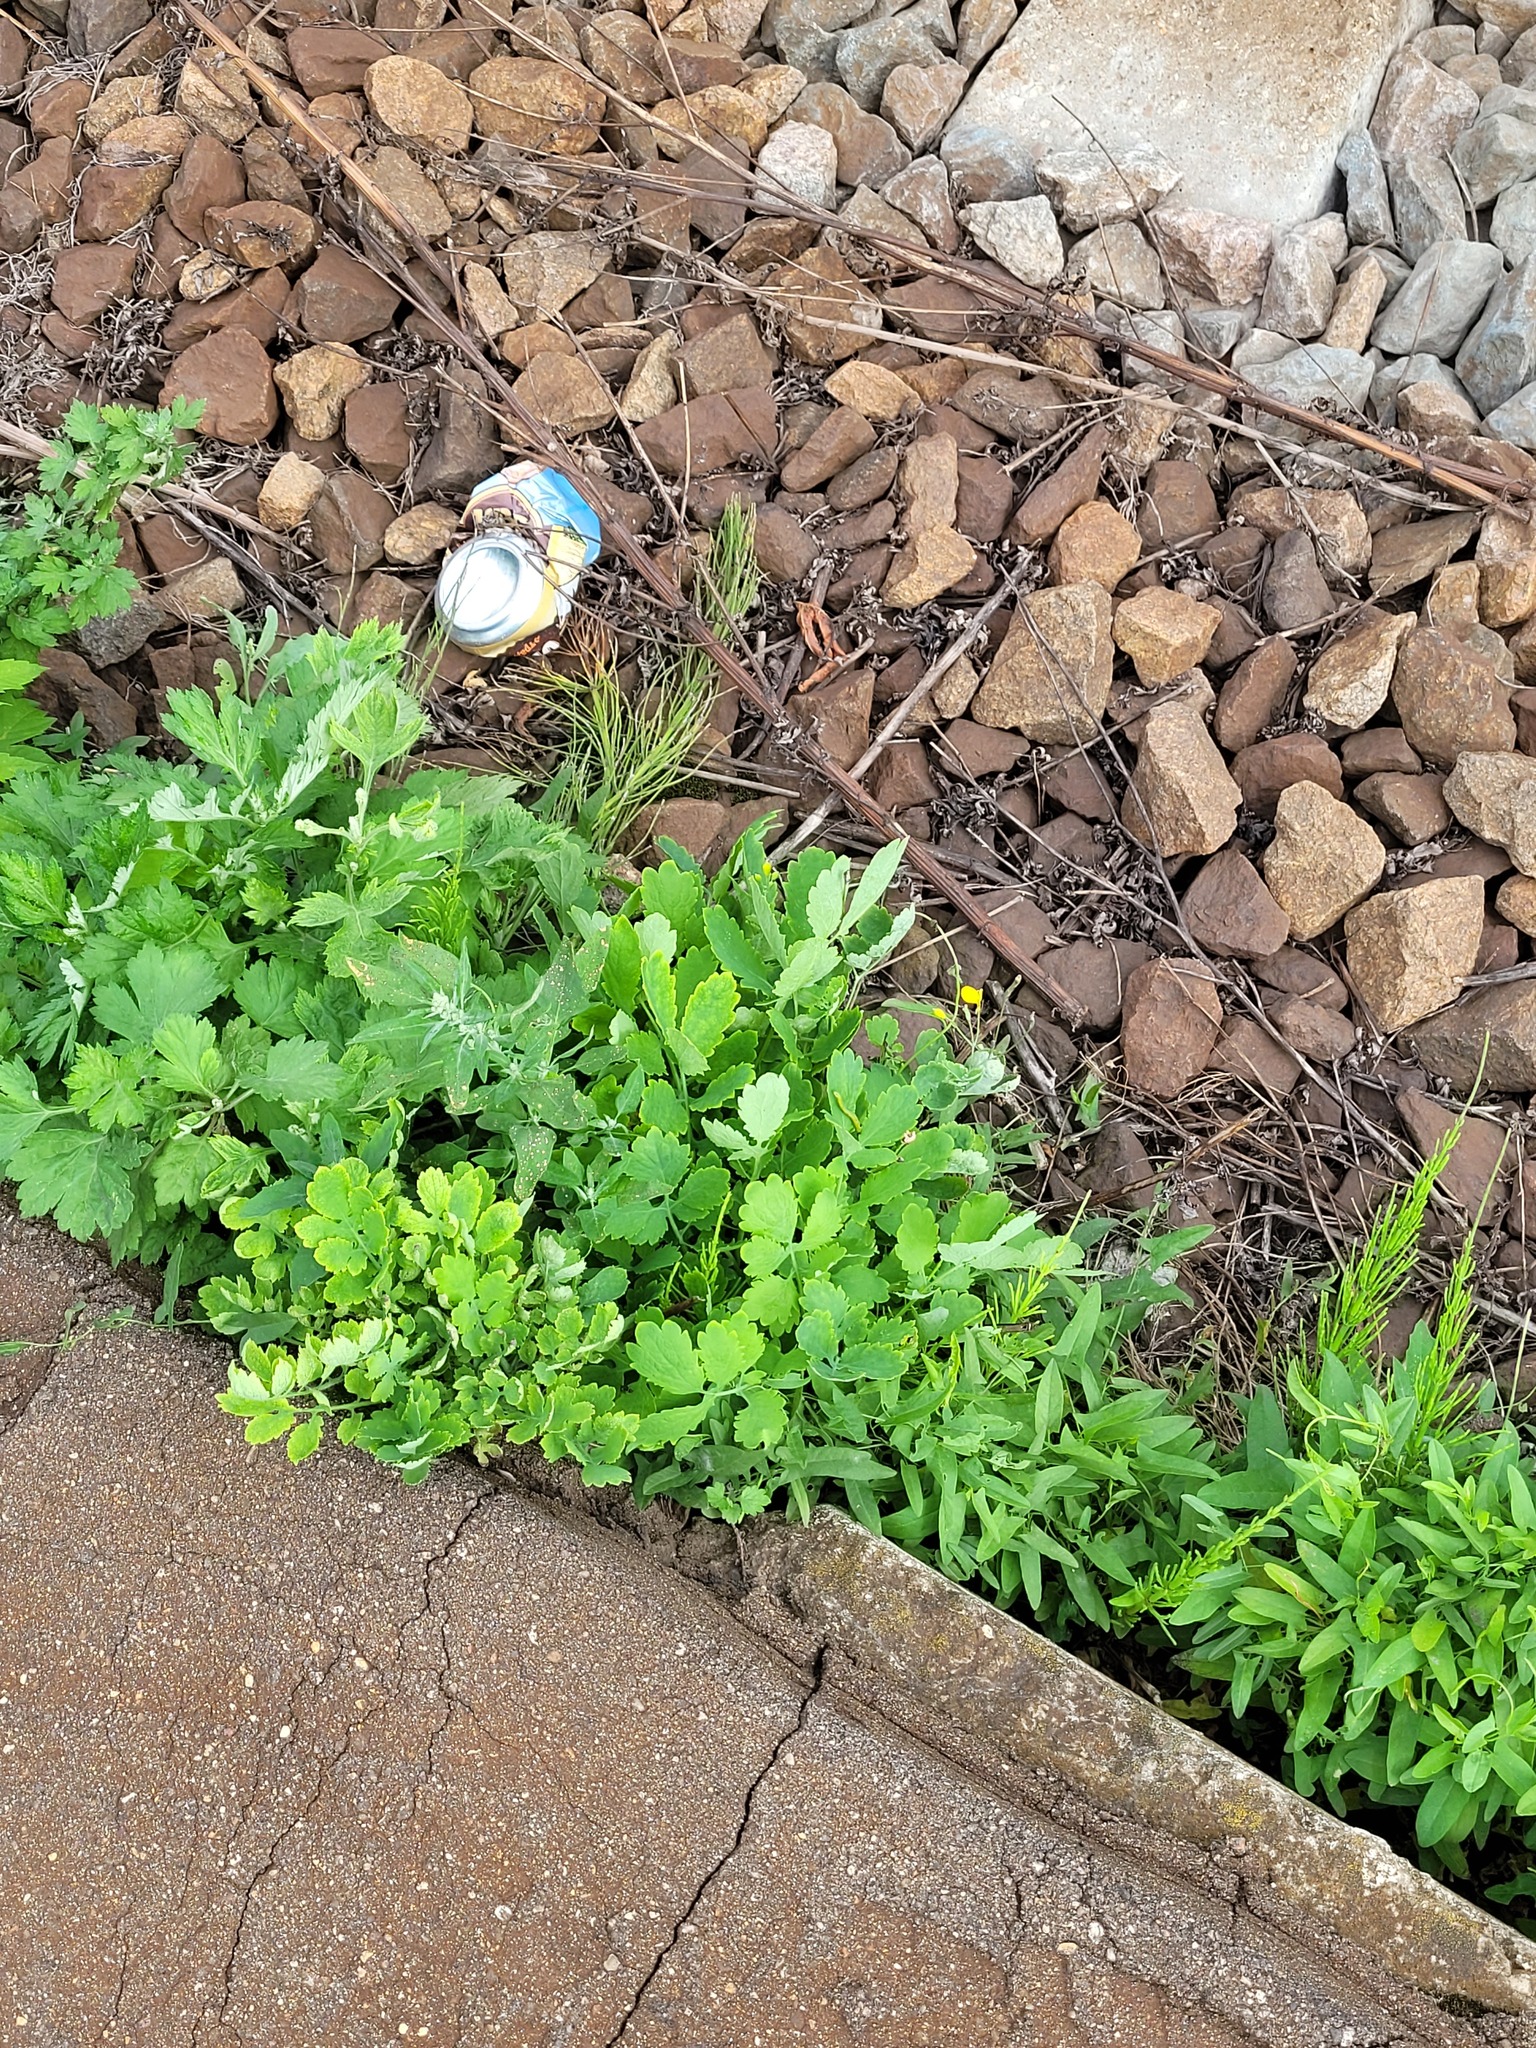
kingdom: Plantae
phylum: Tracheophyta
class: Magnoliopsida
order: Ranunculales
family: Papaveraceae
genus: Chelidonium
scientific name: Chelidonium majus
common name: Greater celandine
